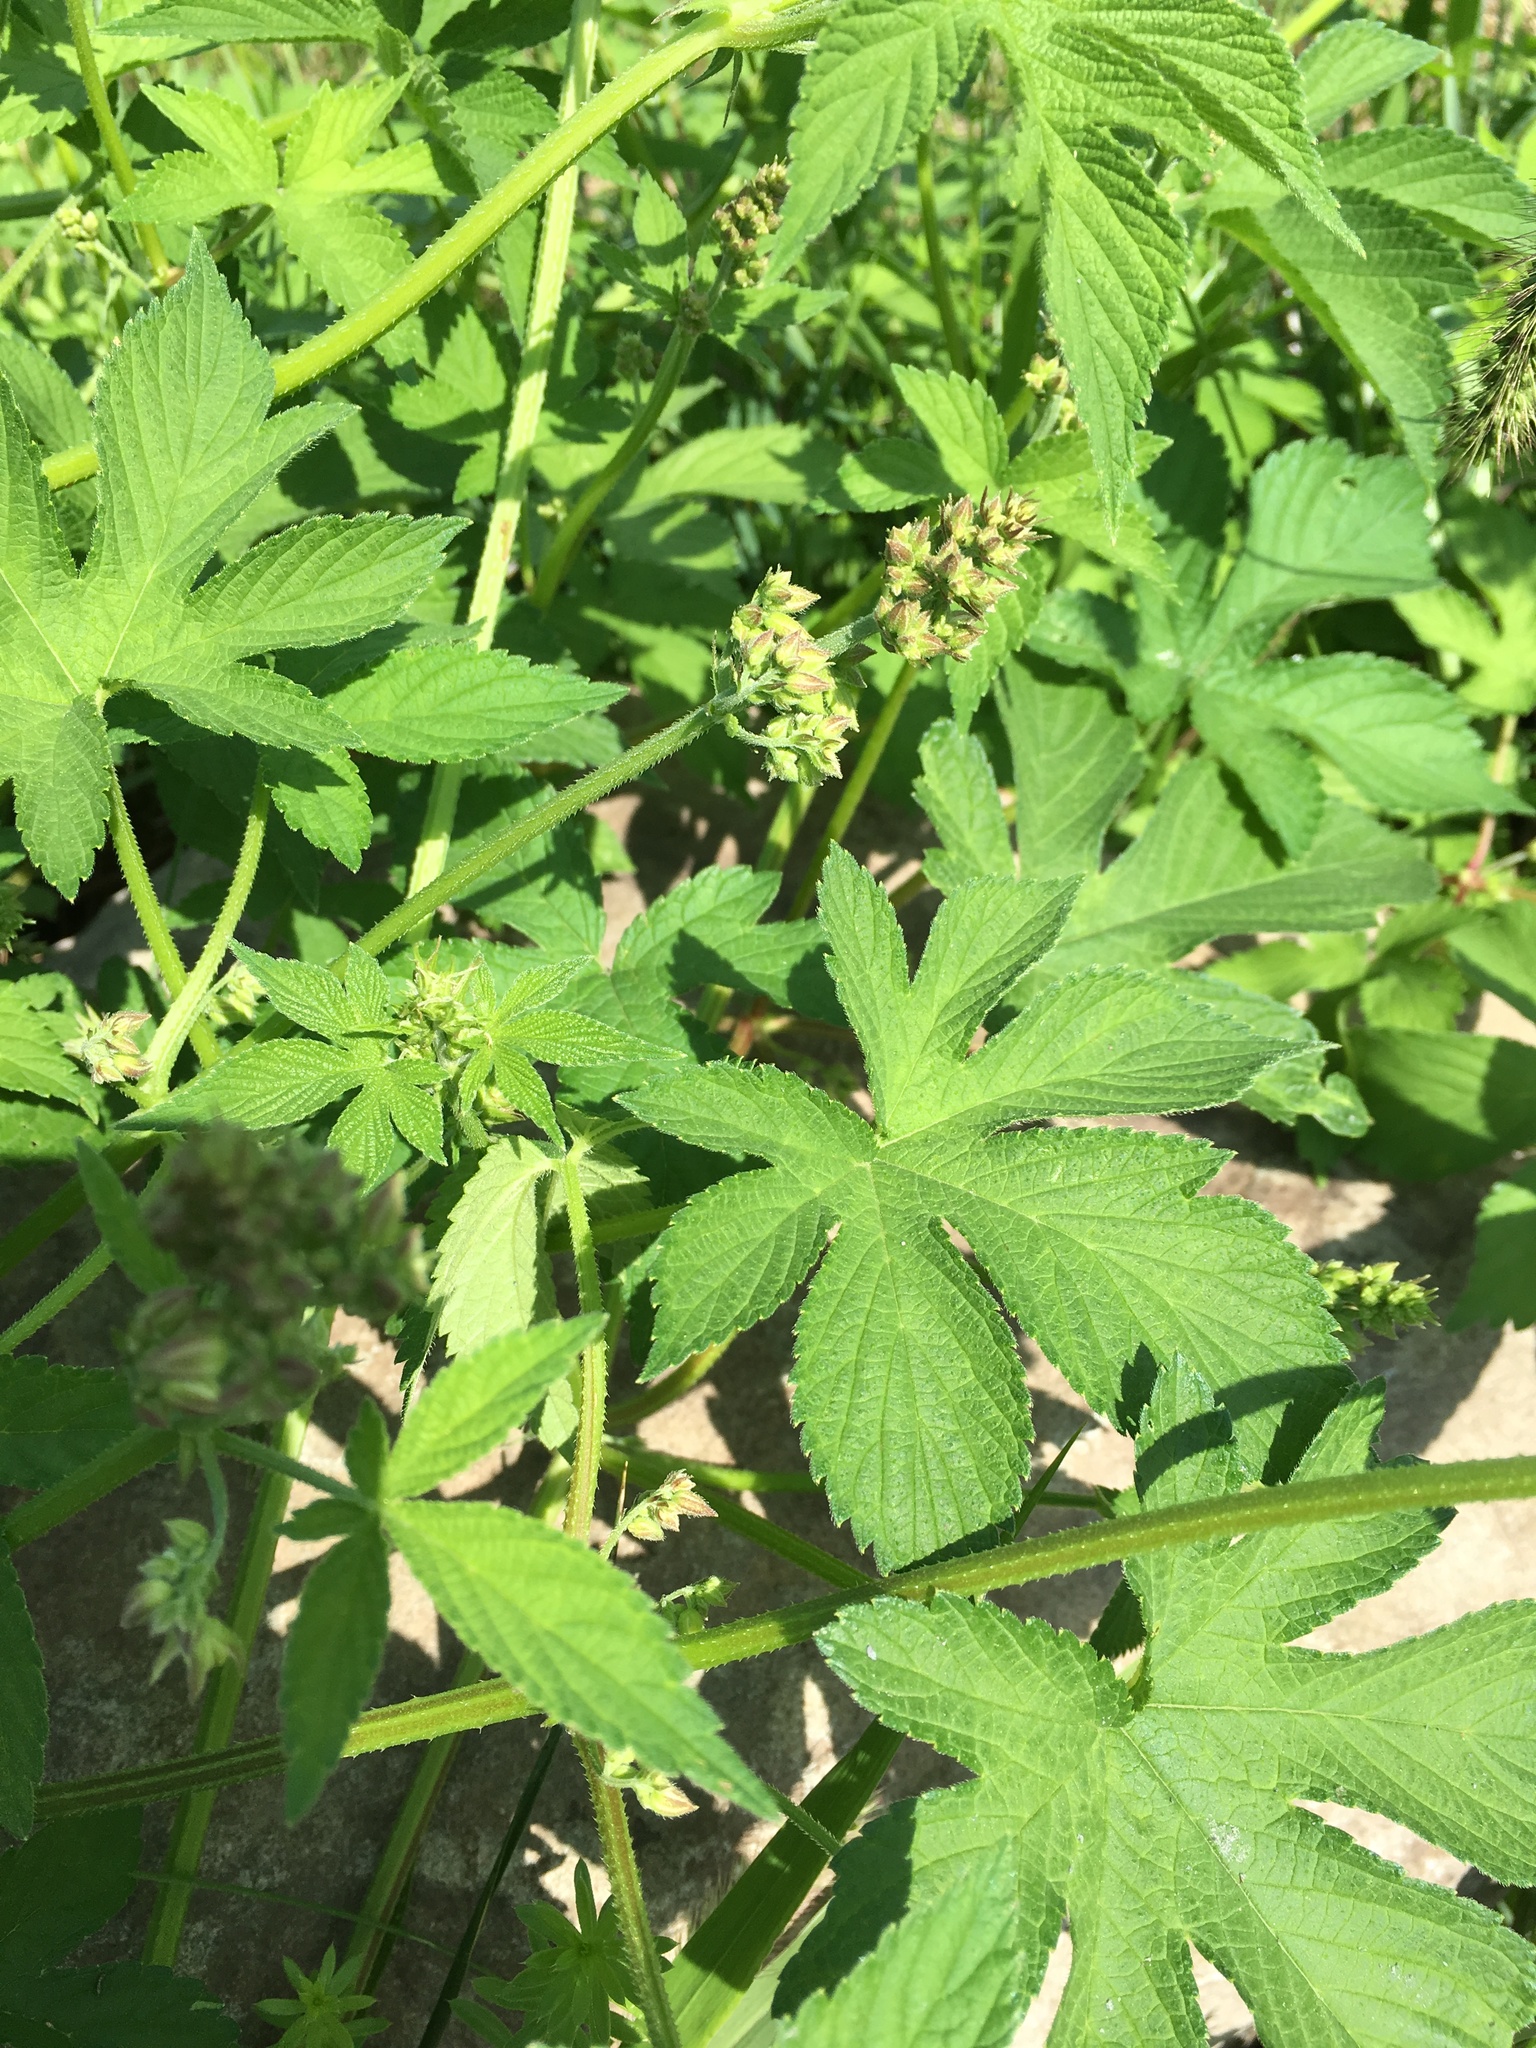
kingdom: Plantae
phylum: Tracheophyta
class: Magnoliopsida
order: Rosales
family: Cannabaceae
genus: Humulus
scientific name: Humulus scandens
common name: Japanese hop
